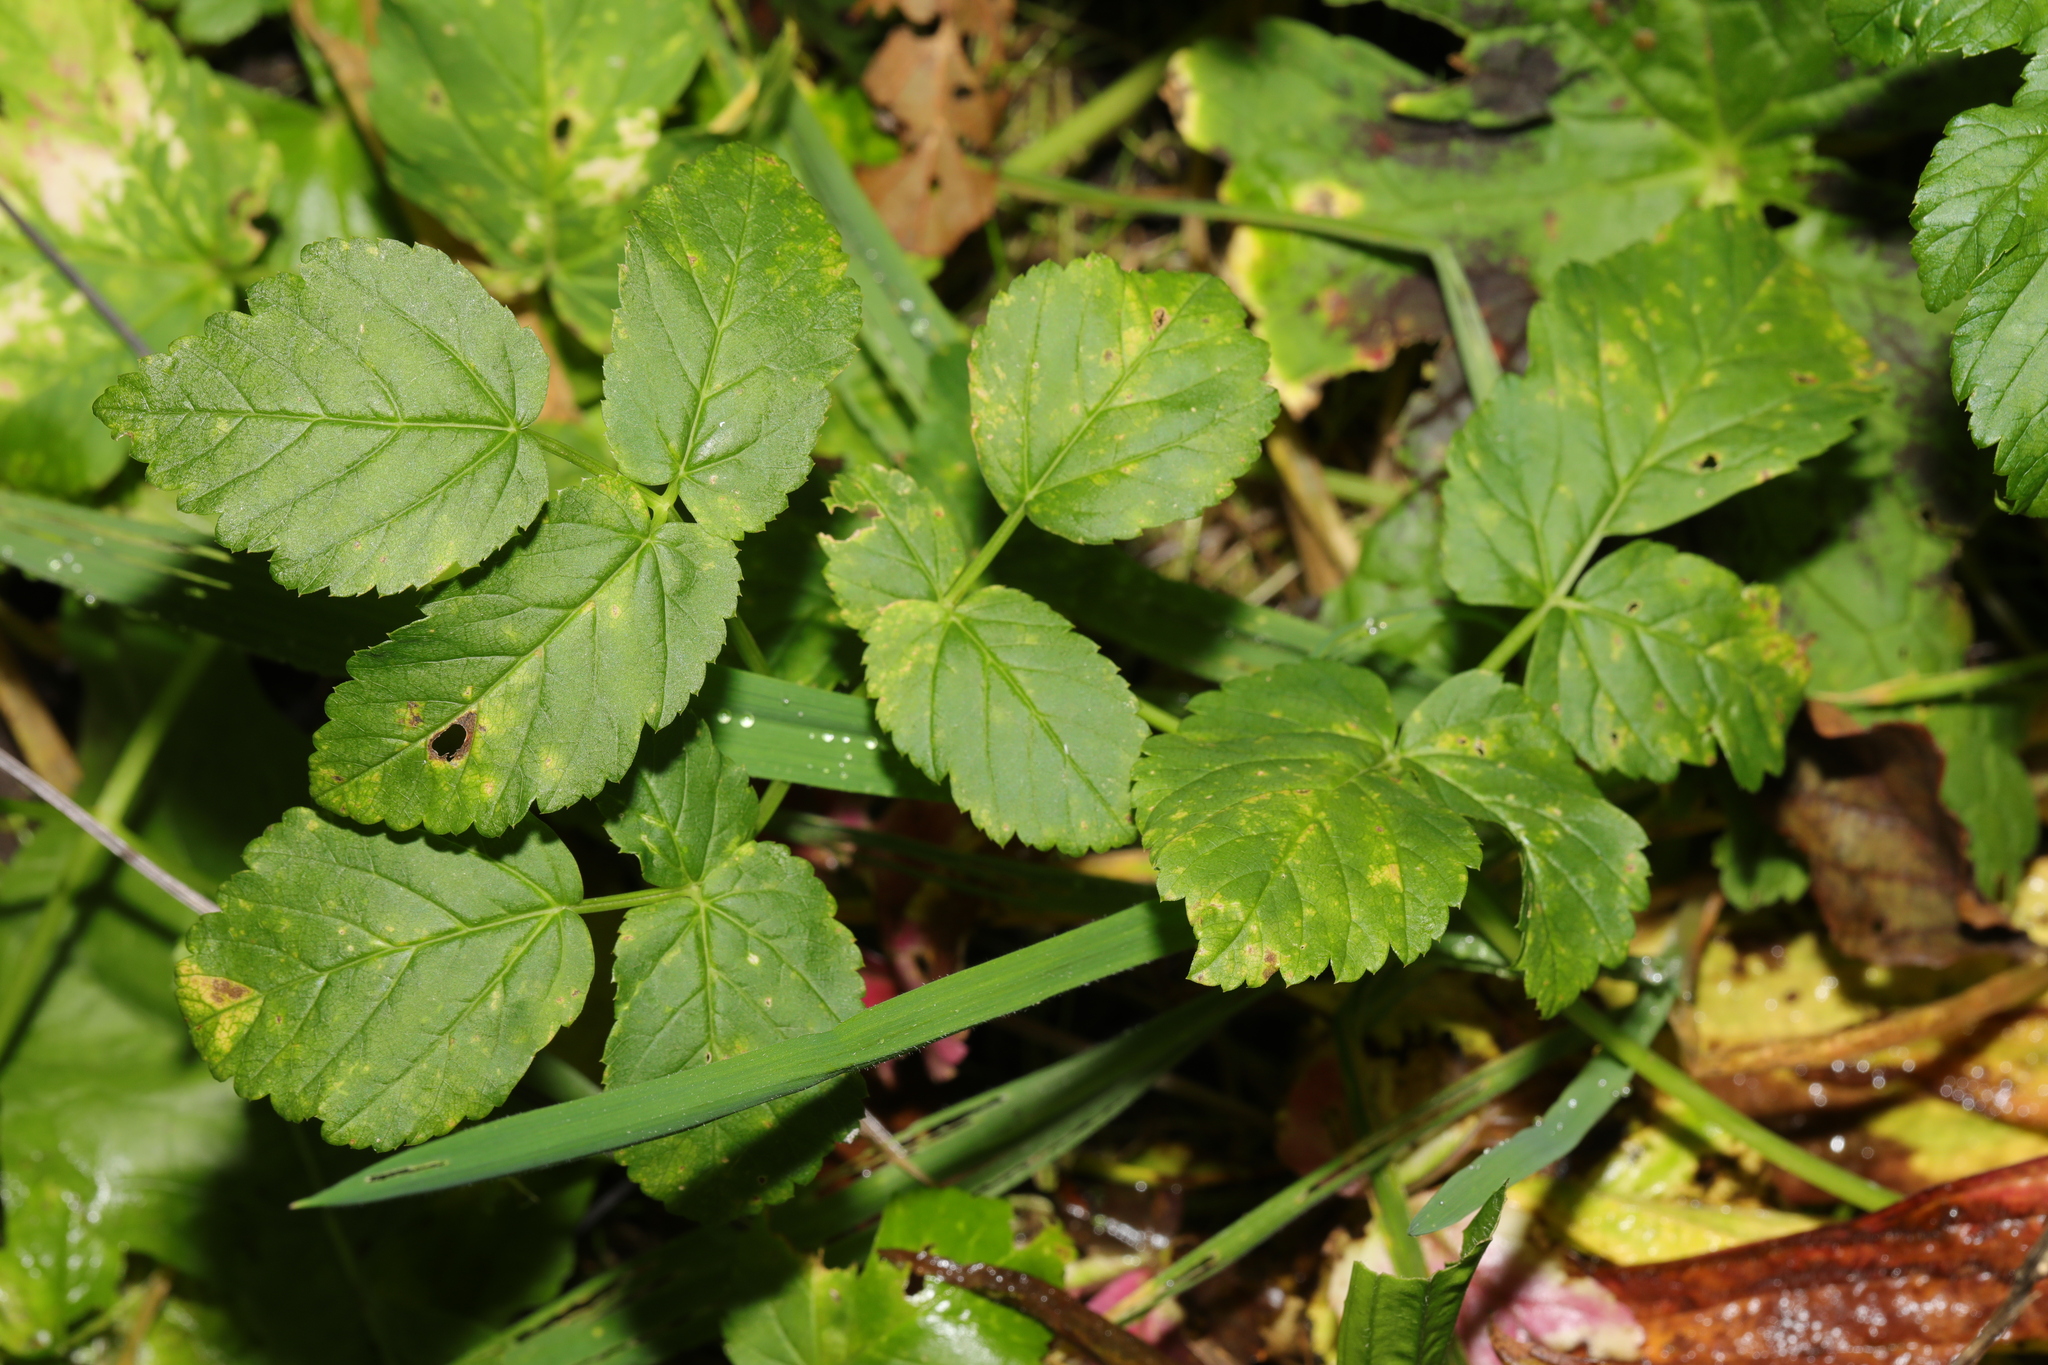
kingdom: Plantae
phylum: Tracheophyta
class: Magnoliopsida
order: Apiales
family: Apiaceae
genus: Aegopodium
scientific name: Aegopodium podagraria
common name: Ground-elder
